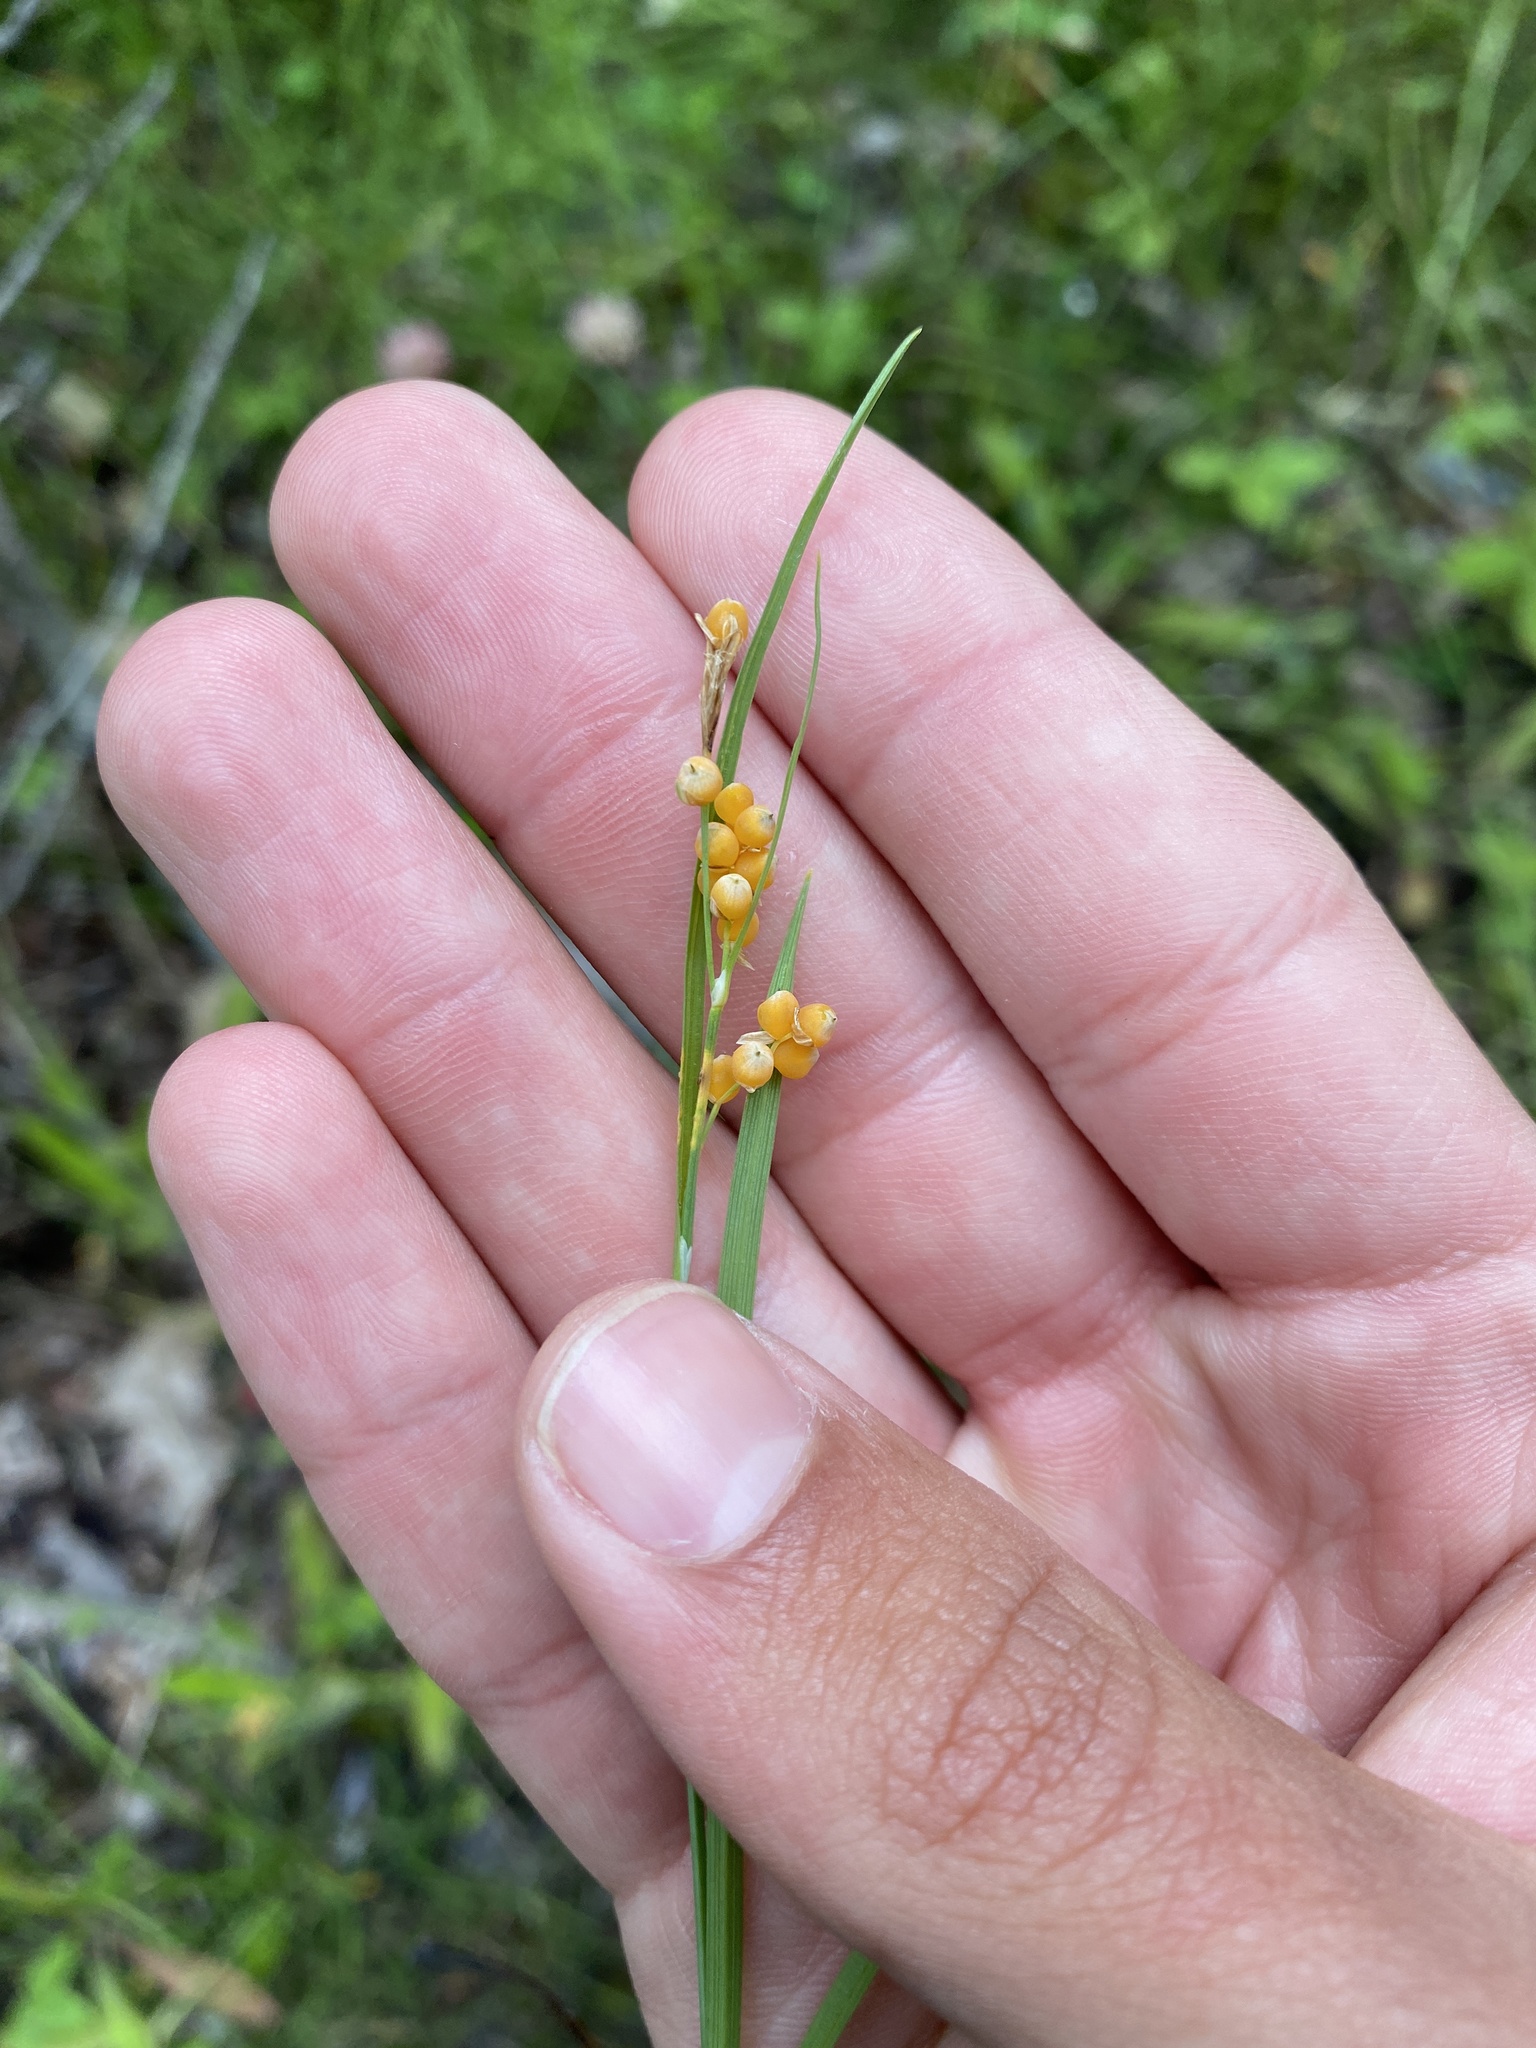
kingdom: Plantae
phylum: Tracheophyta
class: Liliopsida
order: Poales
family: Cyperaceae
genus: Carex
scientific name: Carex aurea
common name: Golden sedge
